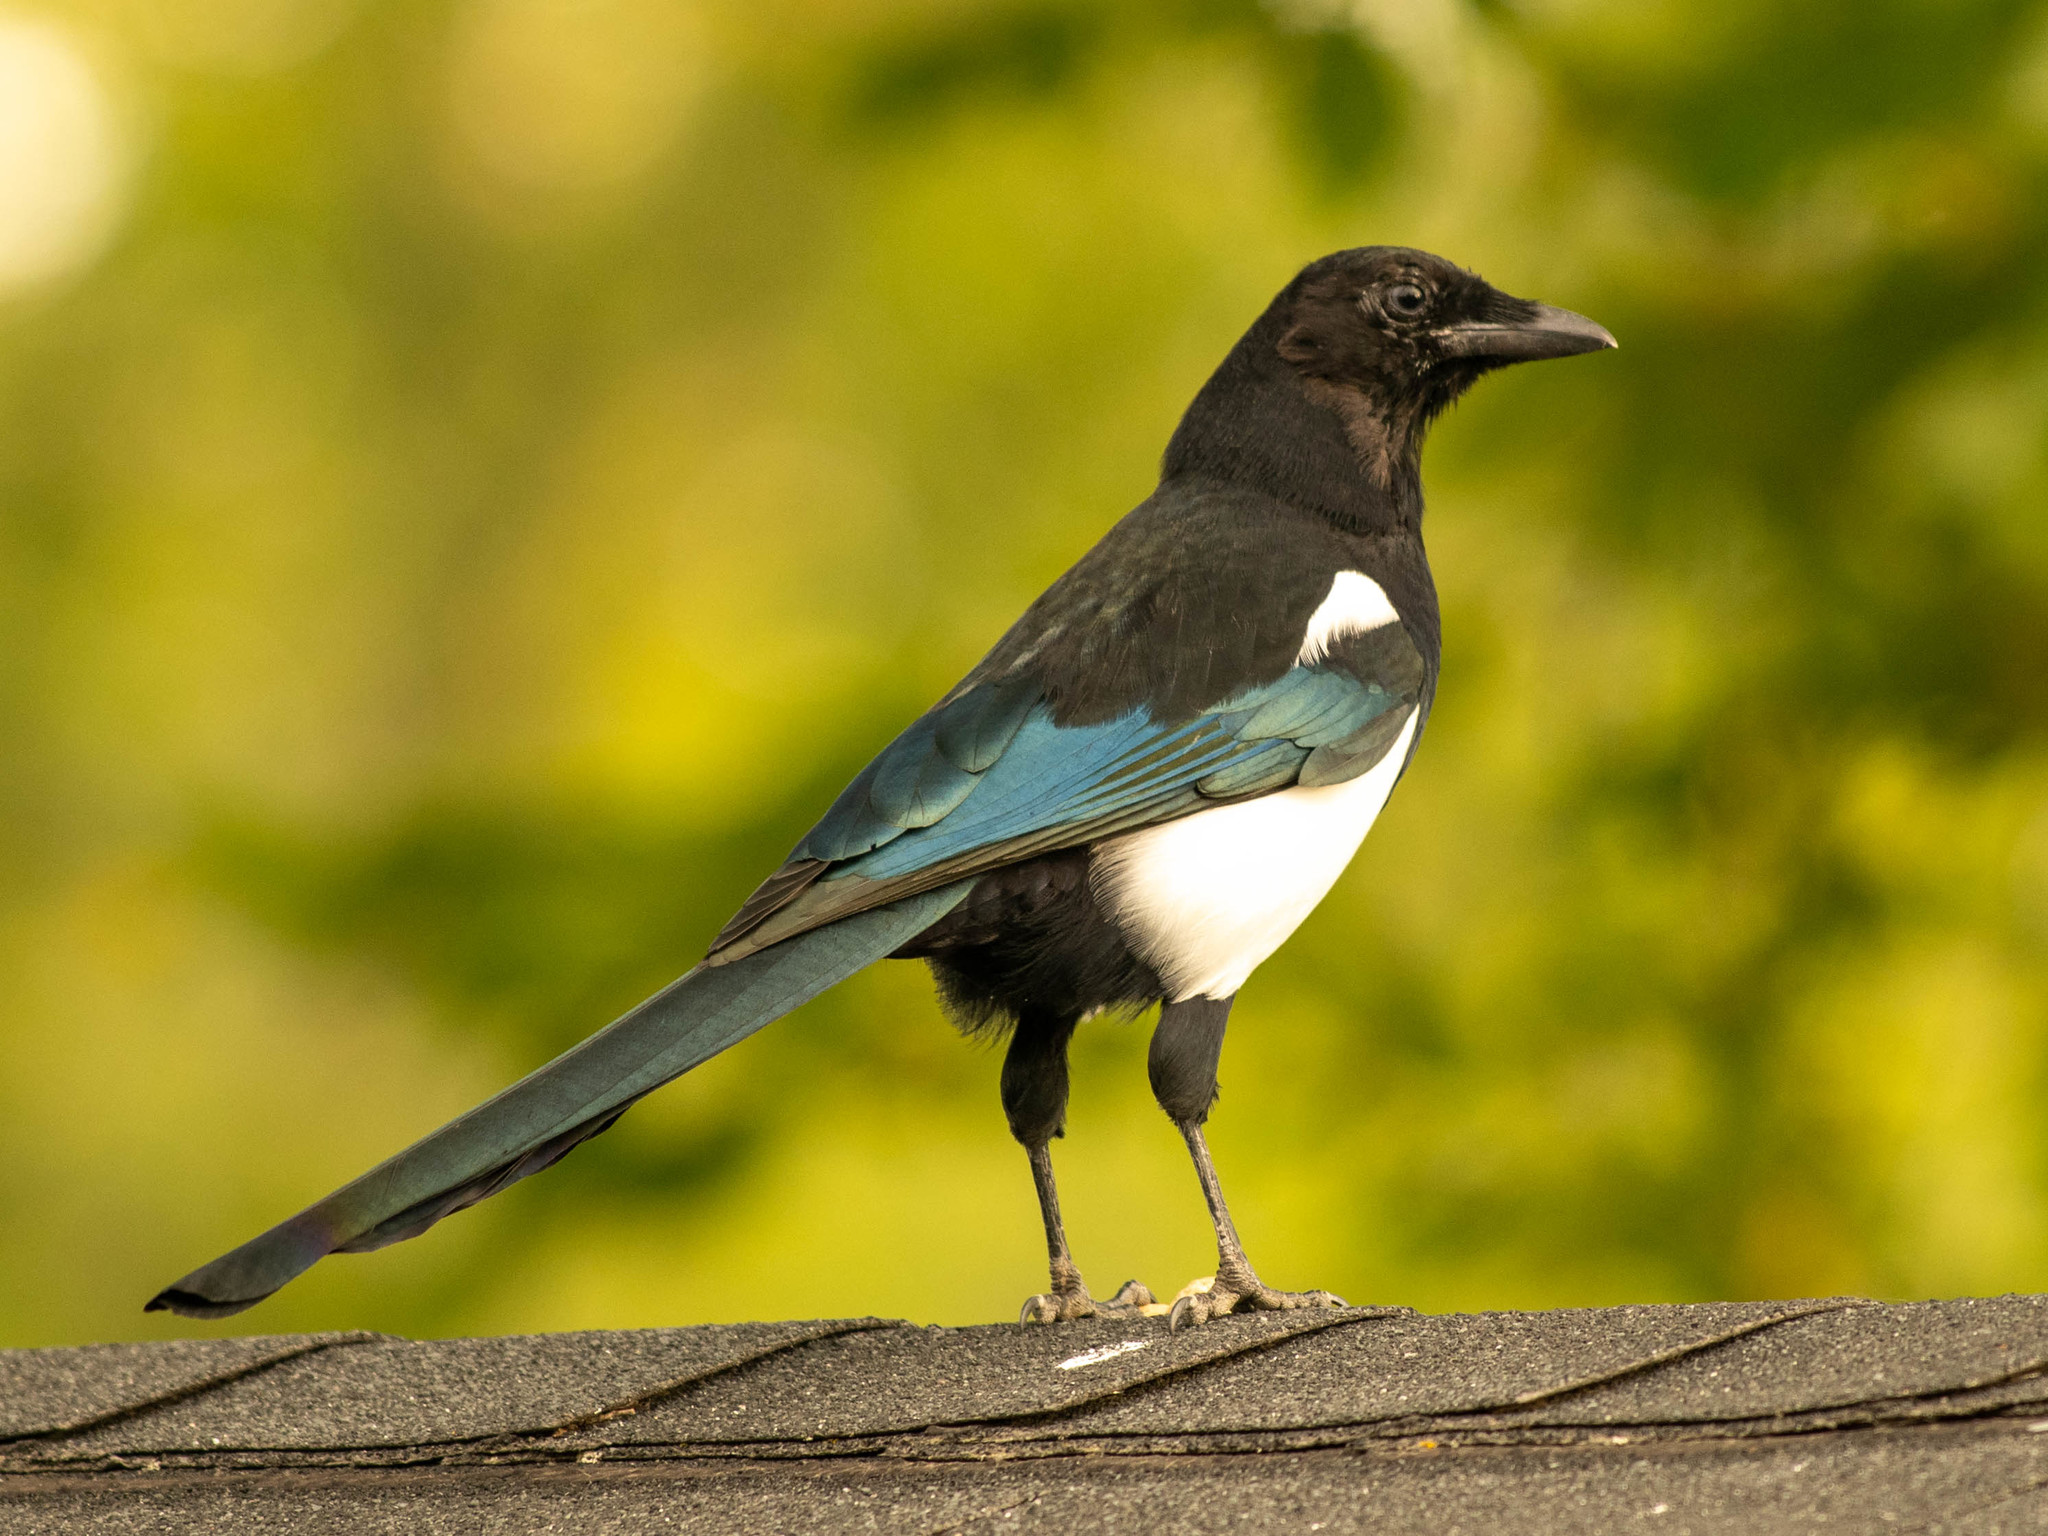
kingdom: Animalia
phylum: Chordata
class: Aves
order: Passeriformes
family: Corvidae
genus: Pica
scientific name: Pica hudsonia
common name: Black-billed magpie
